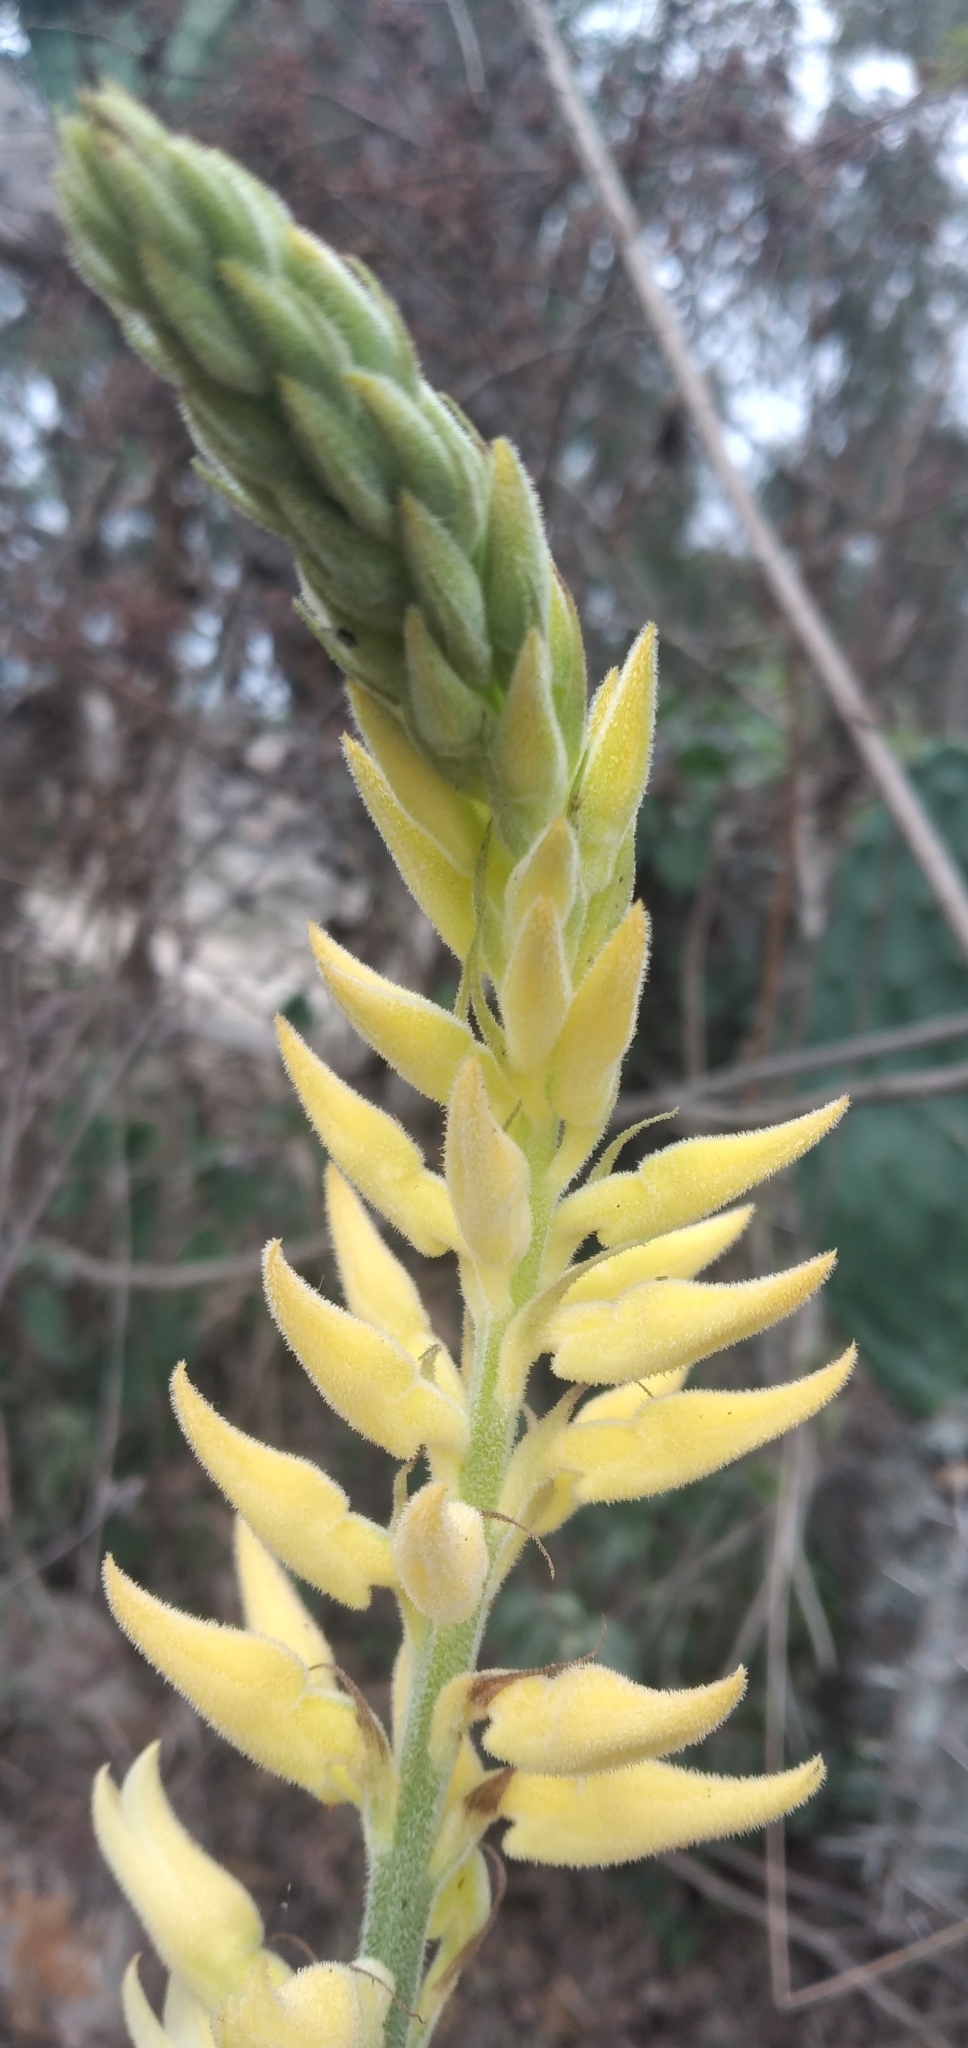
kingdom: Plantae
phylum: Tracheophyta
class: Liliopsida
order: Asparagales
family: Orchidaceae
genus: Sacoila
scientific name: Sacoila lanceolata
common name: Leafless beaked ladiestresses
